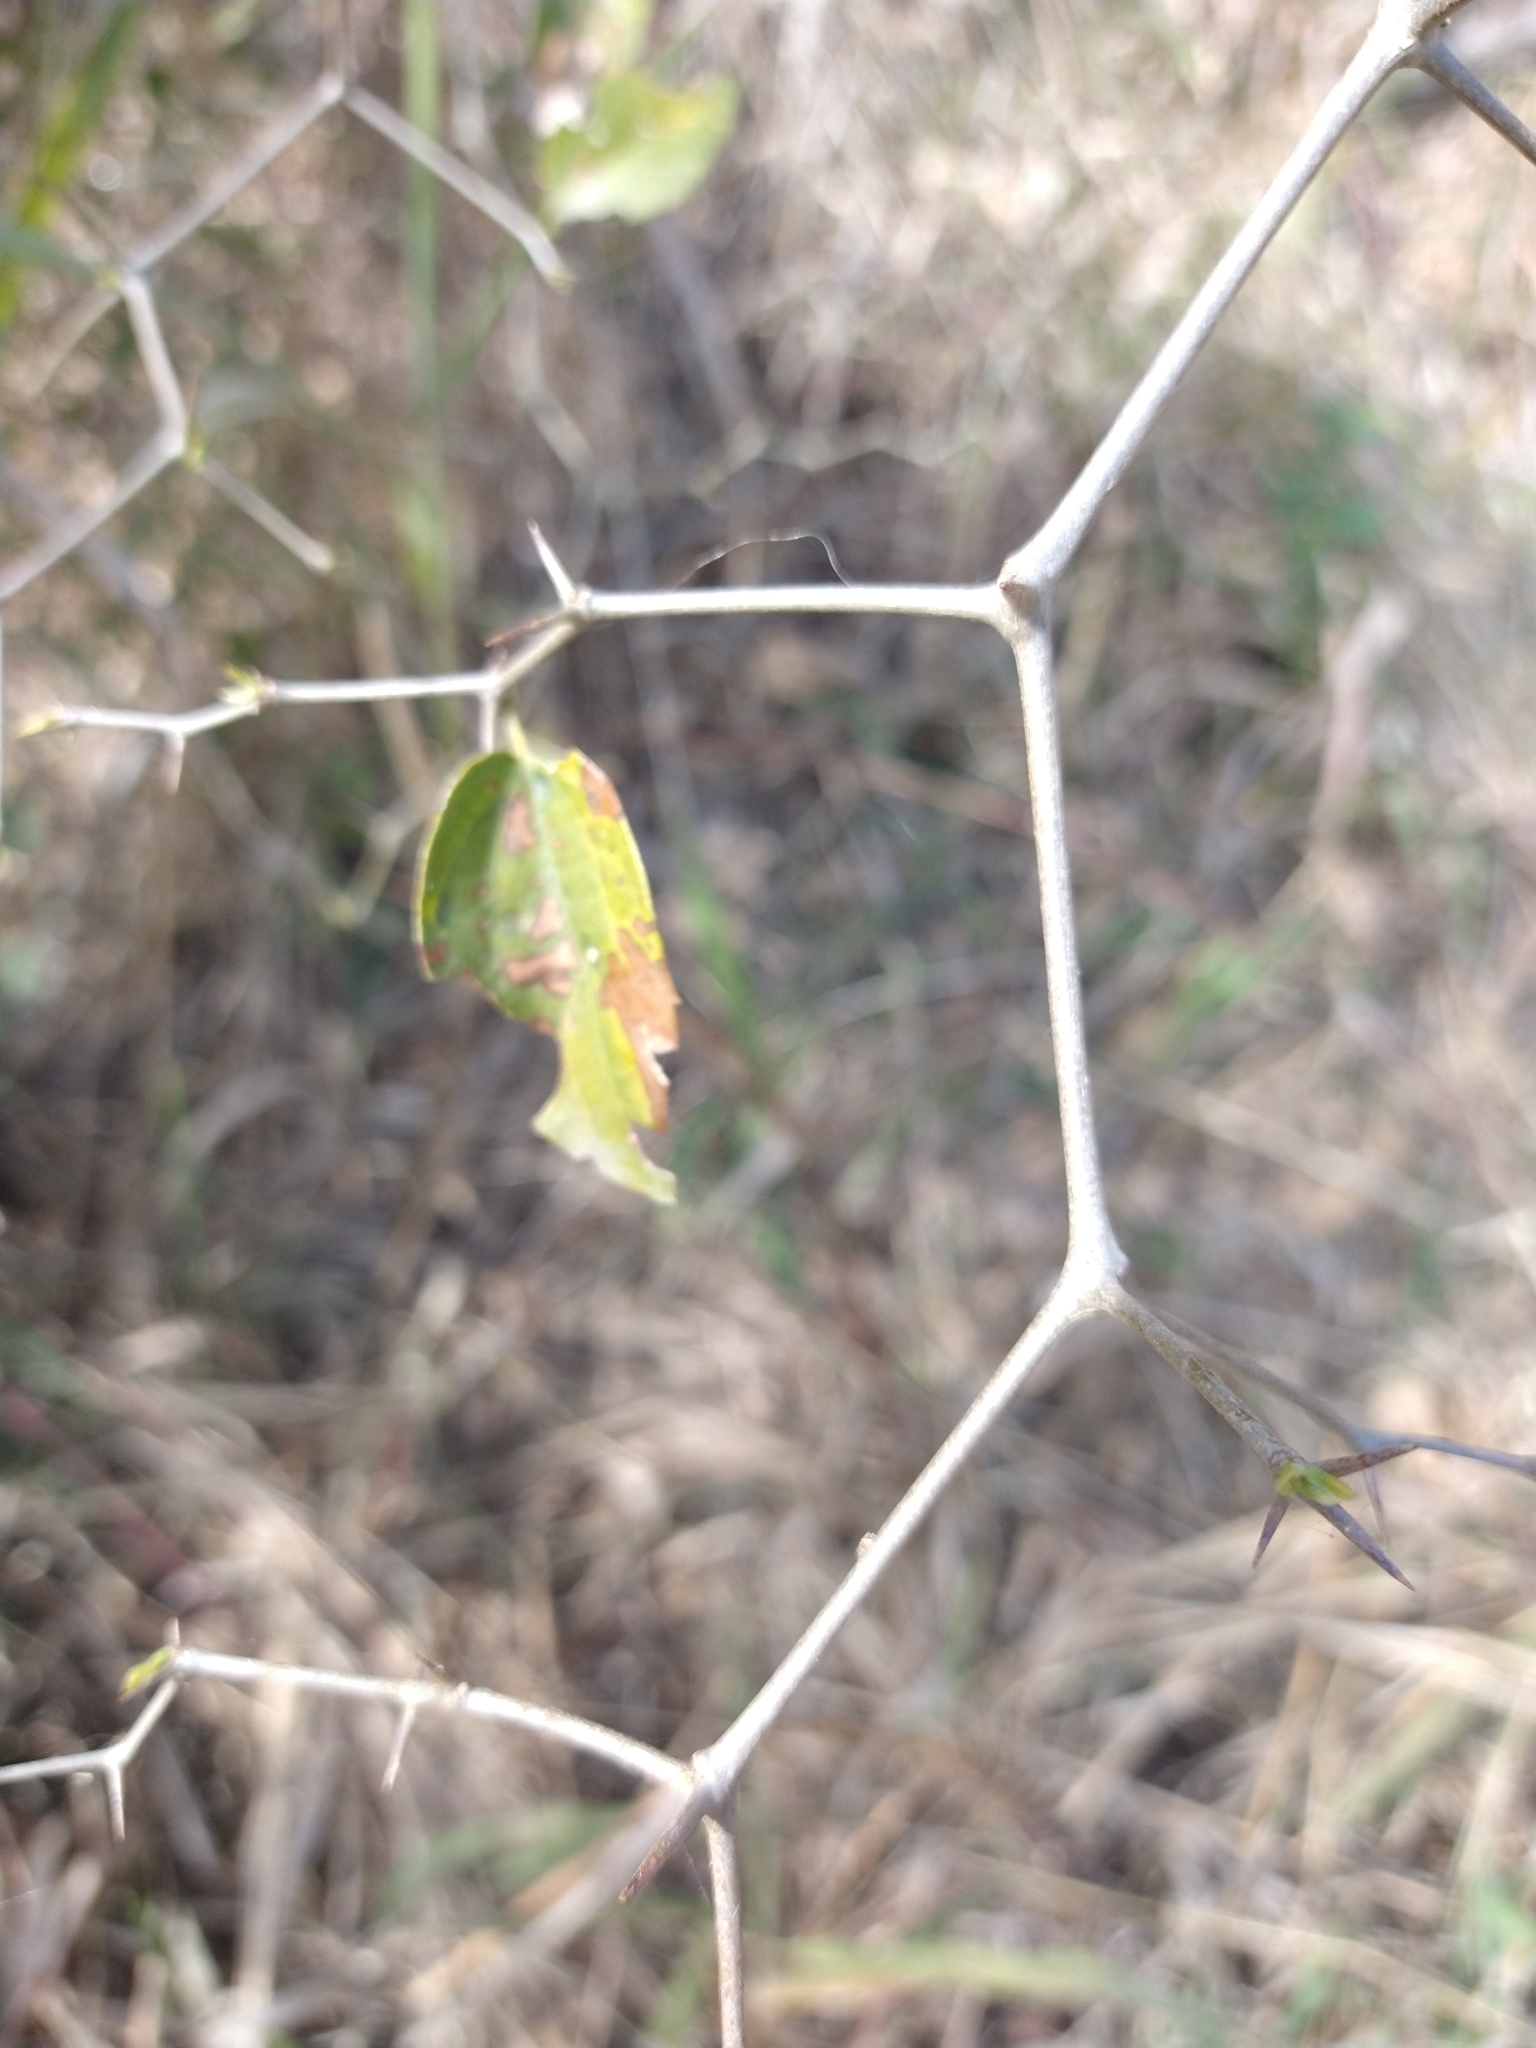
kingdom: Plantae
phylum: Tracheophyta
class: Magnoliopsida
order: Rosales
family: Cannabaceae
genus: Celtis
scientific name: Celtis tala
